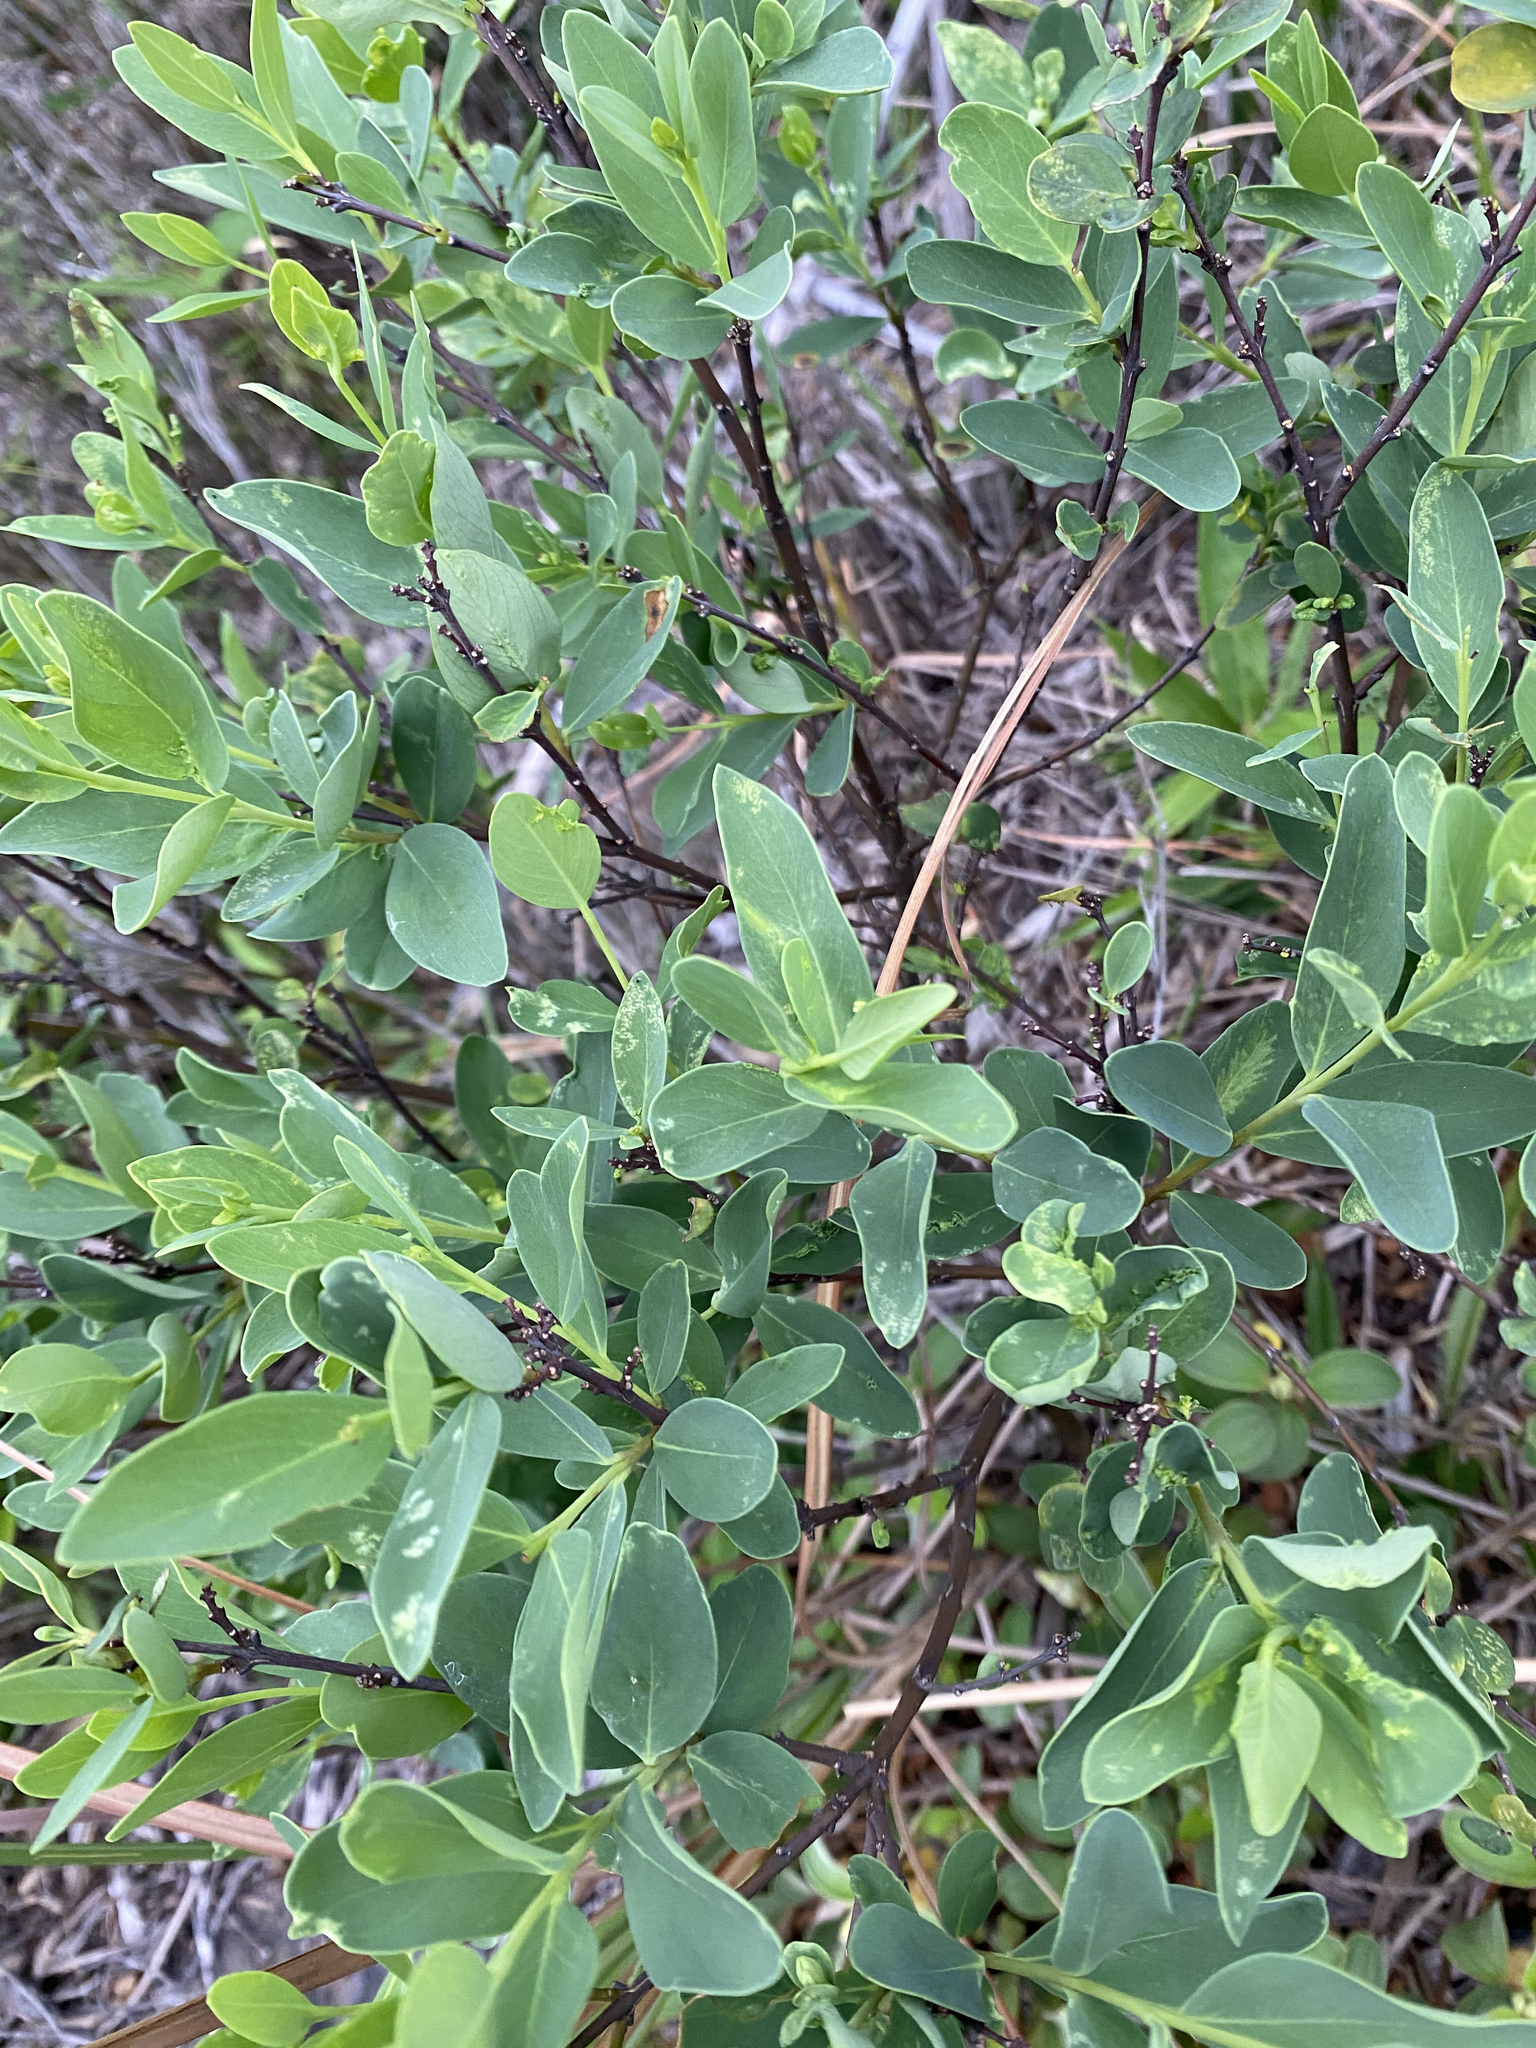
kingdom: Plantae
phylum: Tracheophyta
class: Magnoliopsida
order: Malvales
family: Thymelaeaceae
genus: Wikstroemia
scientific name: Wikstroemia indica
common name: Tiebush
